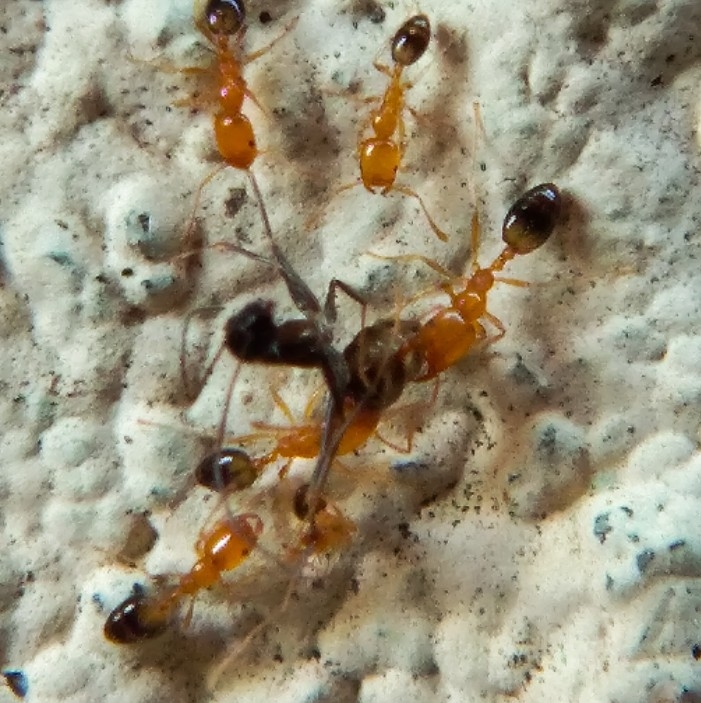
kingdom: Animalia
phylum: Arthropoda
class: Insecta
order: Hymenoptera
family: Formicidae
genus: Monomorium
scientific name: Monomorium destructor
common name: Destructive trailing ant
